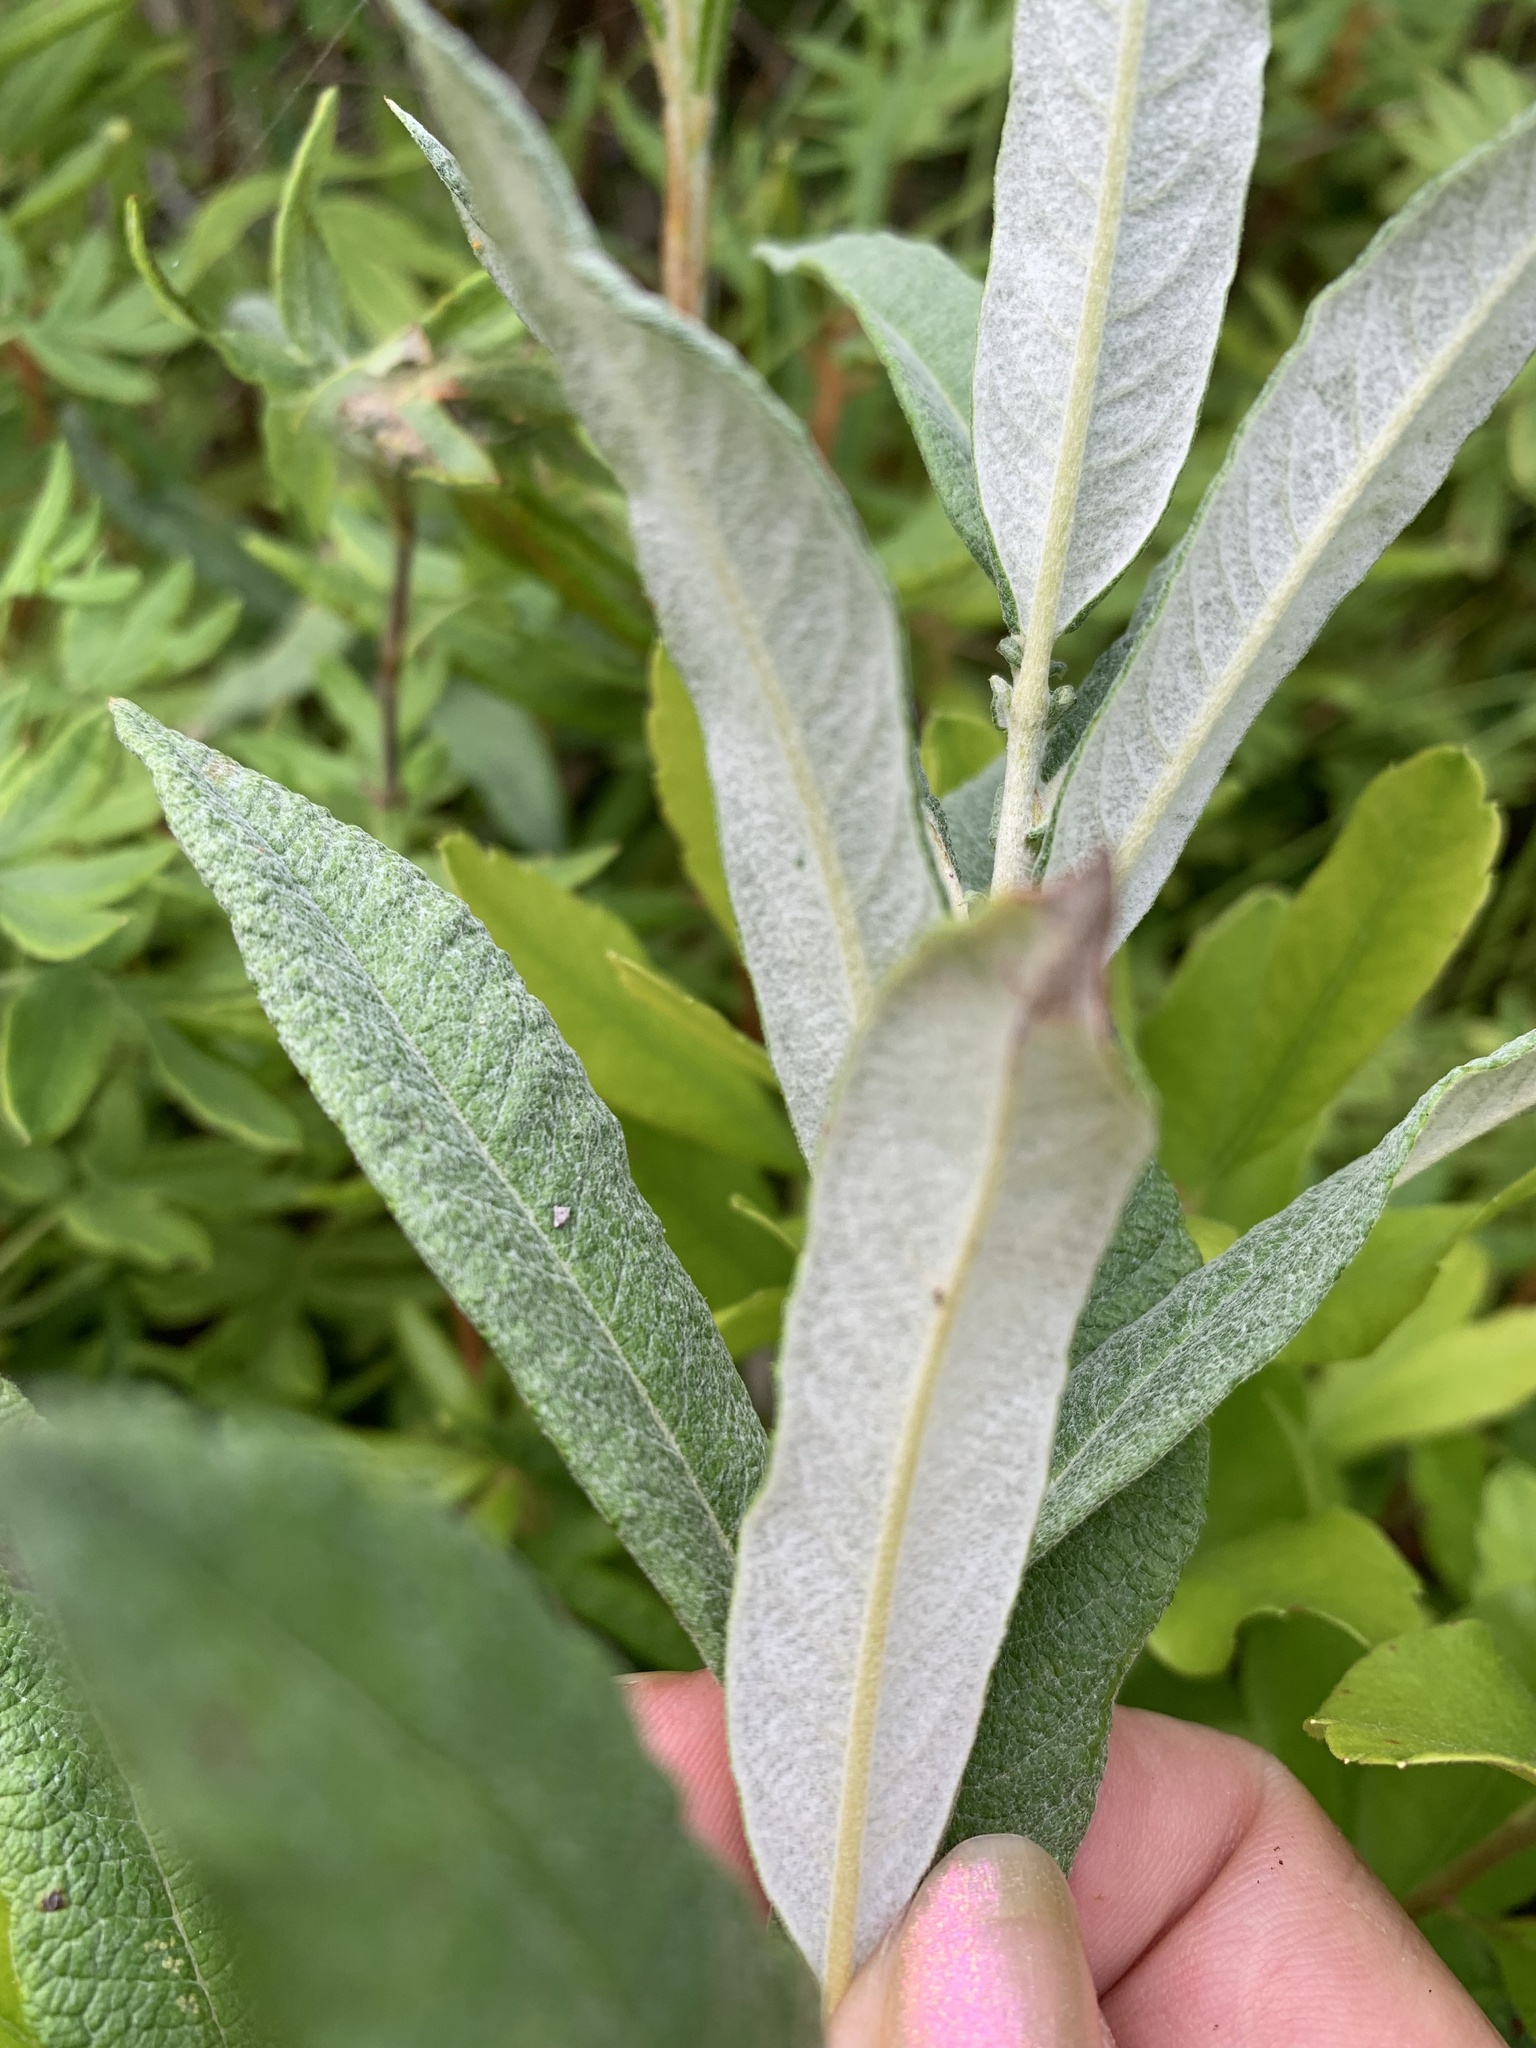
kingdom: Plantae
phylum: Tracheophyta
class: Magnoliopsida
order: Malpighiales
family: Salicaceae
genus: Salix
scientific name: Salix candida
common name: Hoary willow
